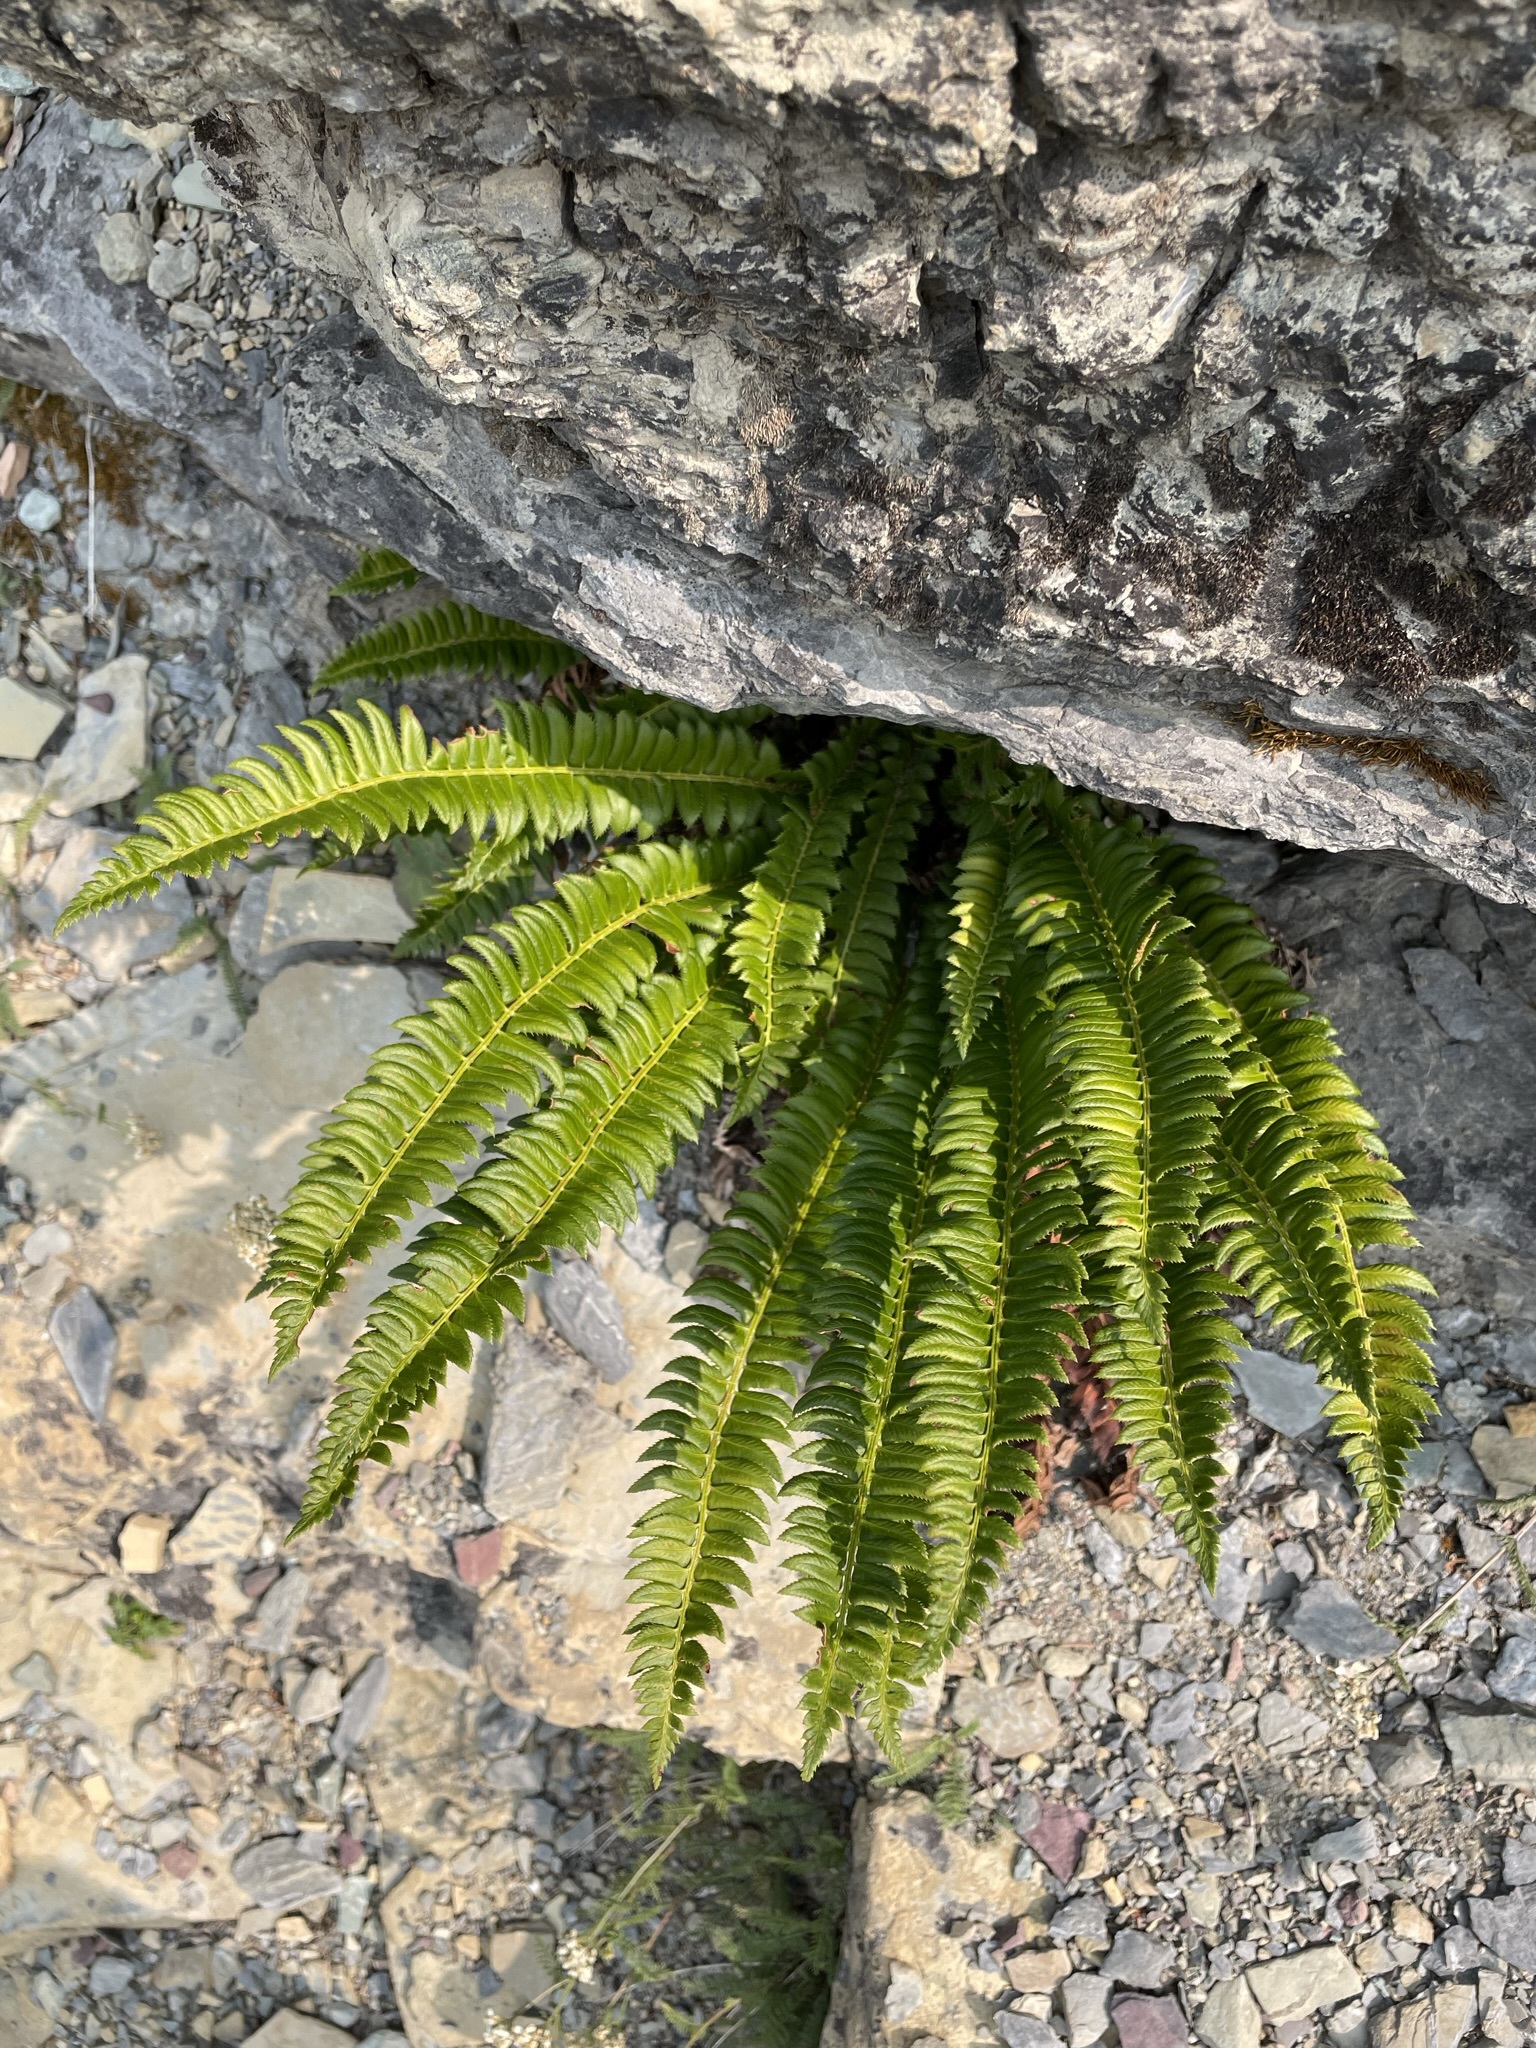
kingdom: Plantae
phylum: Tracheophyta
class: Polypodiopsida
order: Polypodiales
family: Dryopteridaceae
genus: Polystichum
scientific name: Polystichum lonchitis
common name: Holly fern
